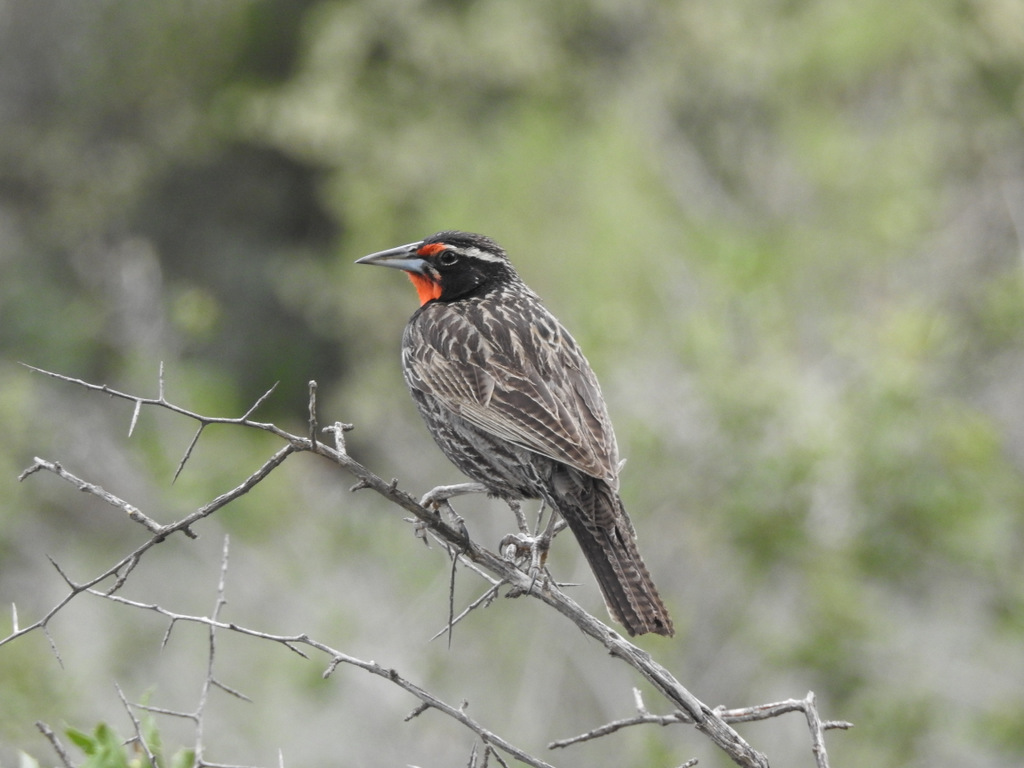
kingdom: Animalia
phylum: Chordata
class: Aves
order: Passeriformes
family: Icteridae
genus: Sturnella
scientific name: Sturnella loyca
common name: Long-tailed meadowlark
